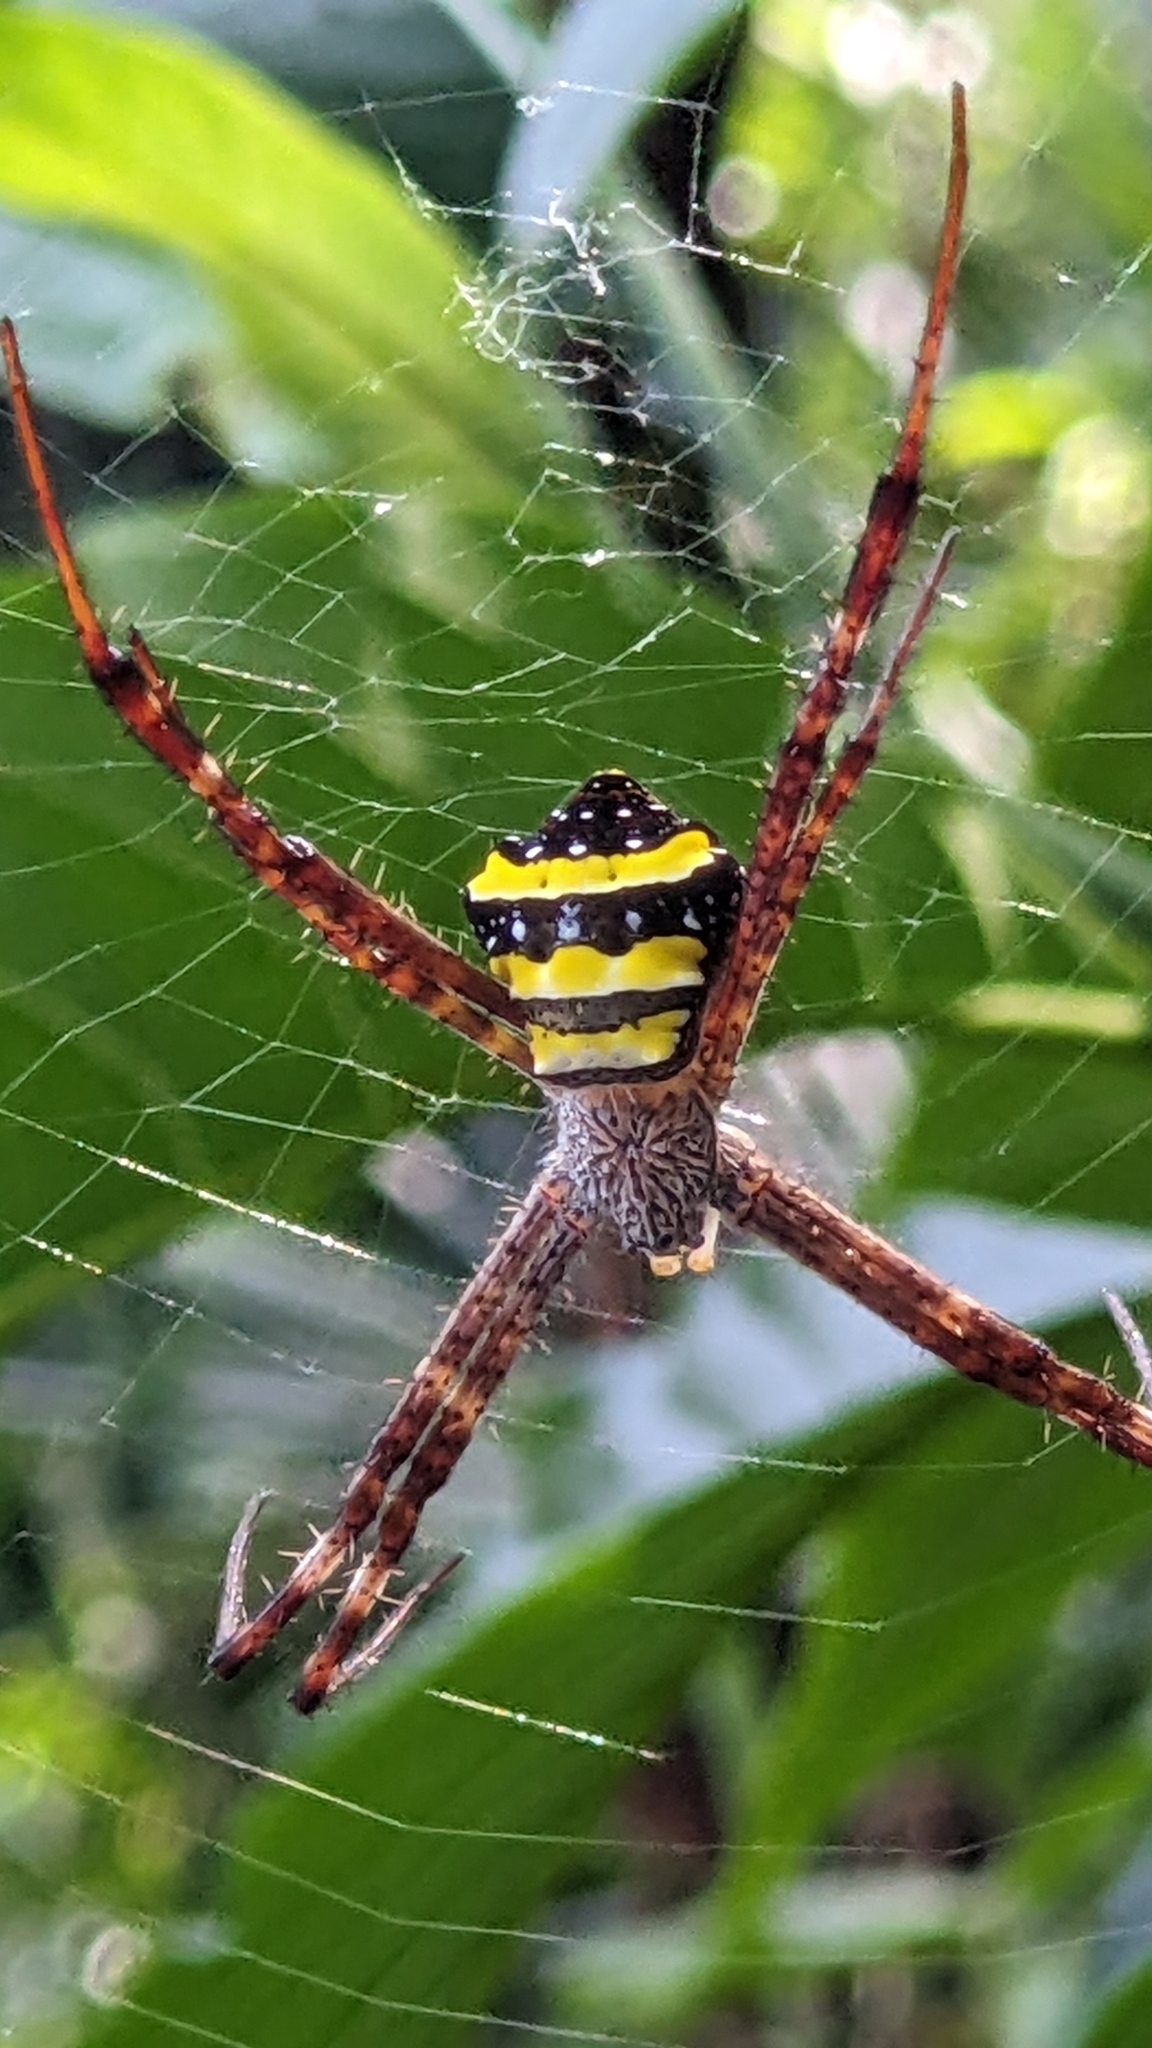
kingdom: Animalia
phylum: Arthropoda
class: Arachnida
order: Araneae
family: Araneidae
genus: Argiope
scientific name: Argiope taprobanica
